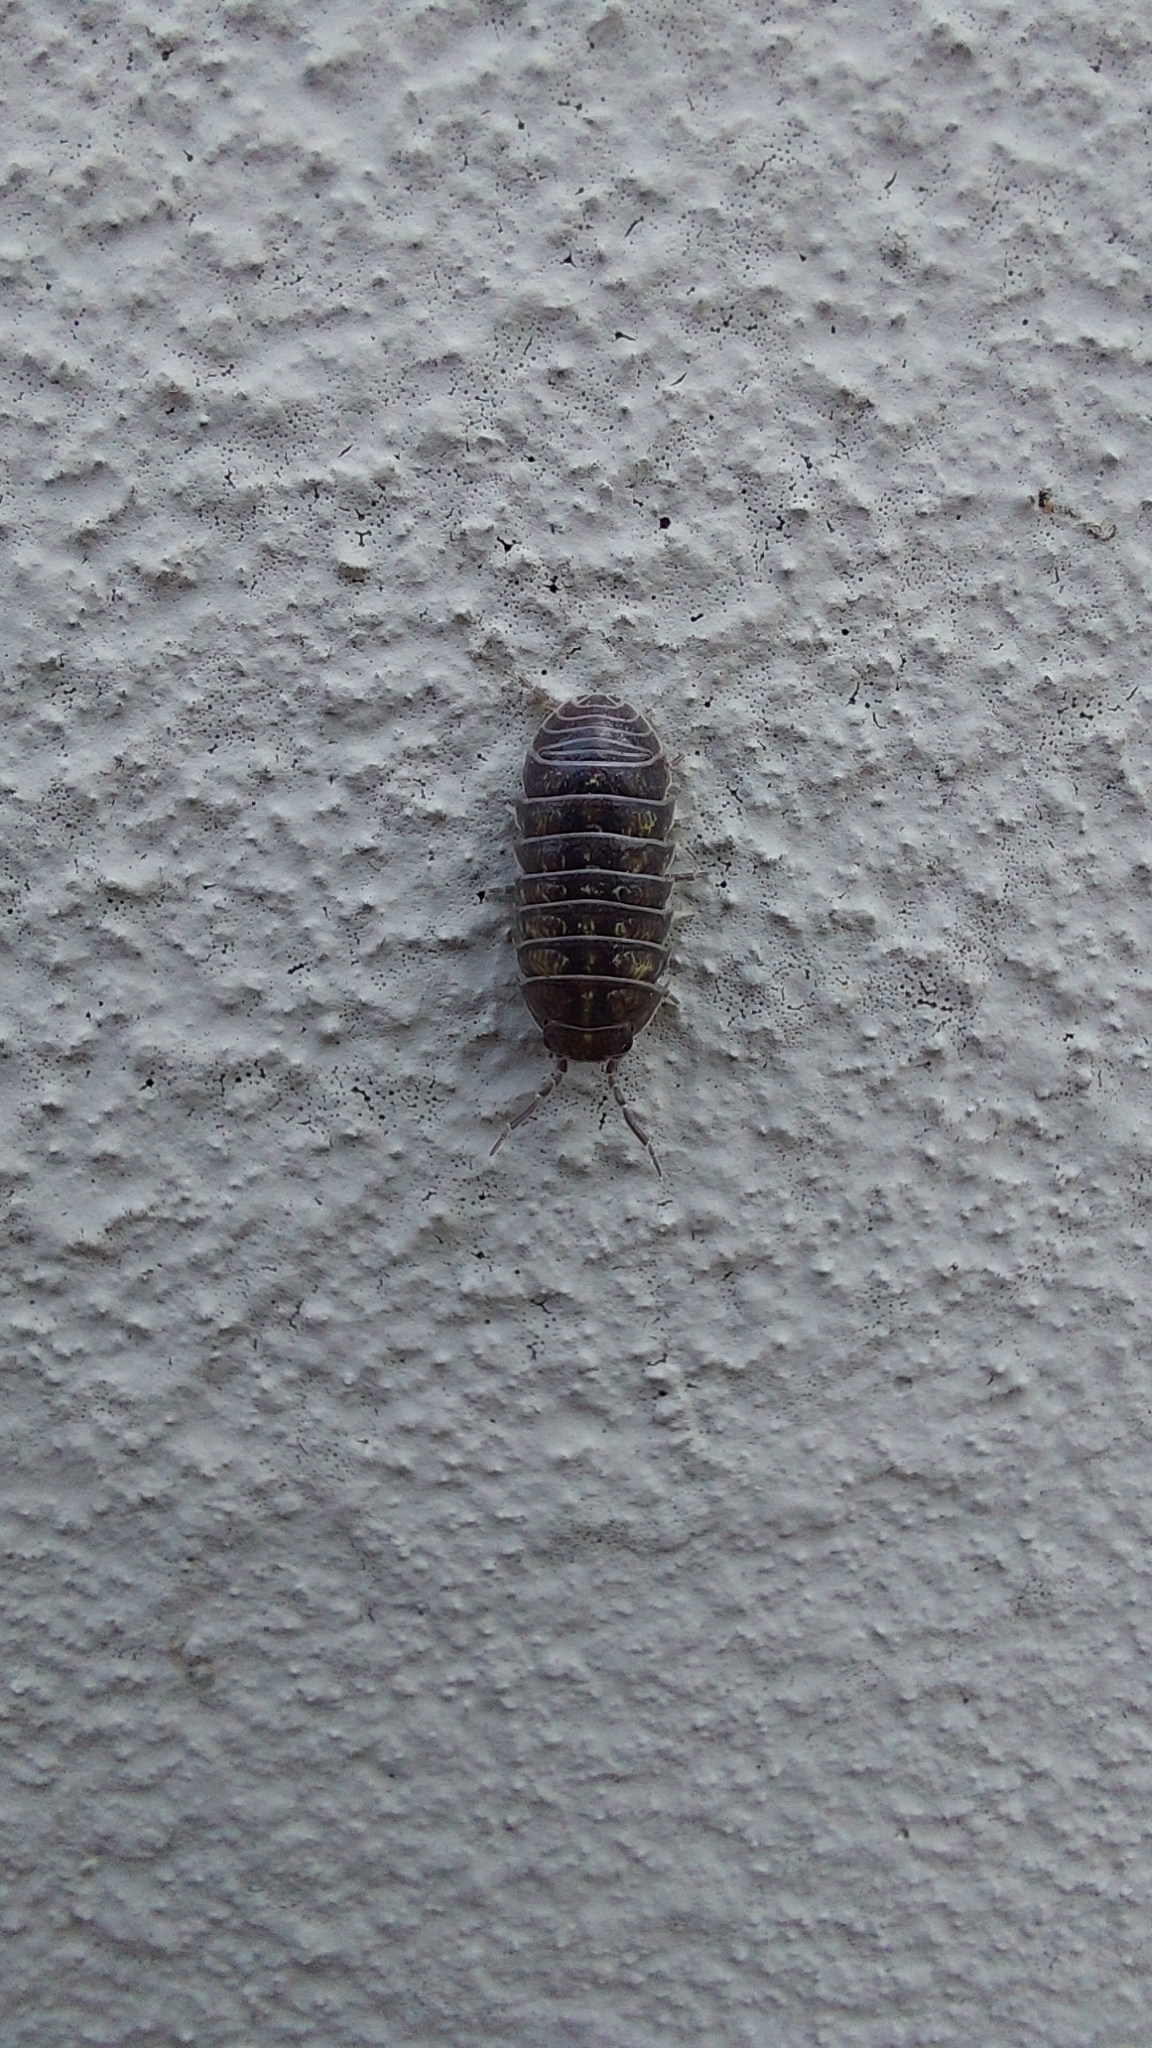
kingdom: Animalia
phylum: Arthropoda
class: Malacostraca
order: Isopoda
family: Armadillidiidae
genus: Armadillidium
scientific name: Armadillidium vulgare
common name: Common pill woodlouse
